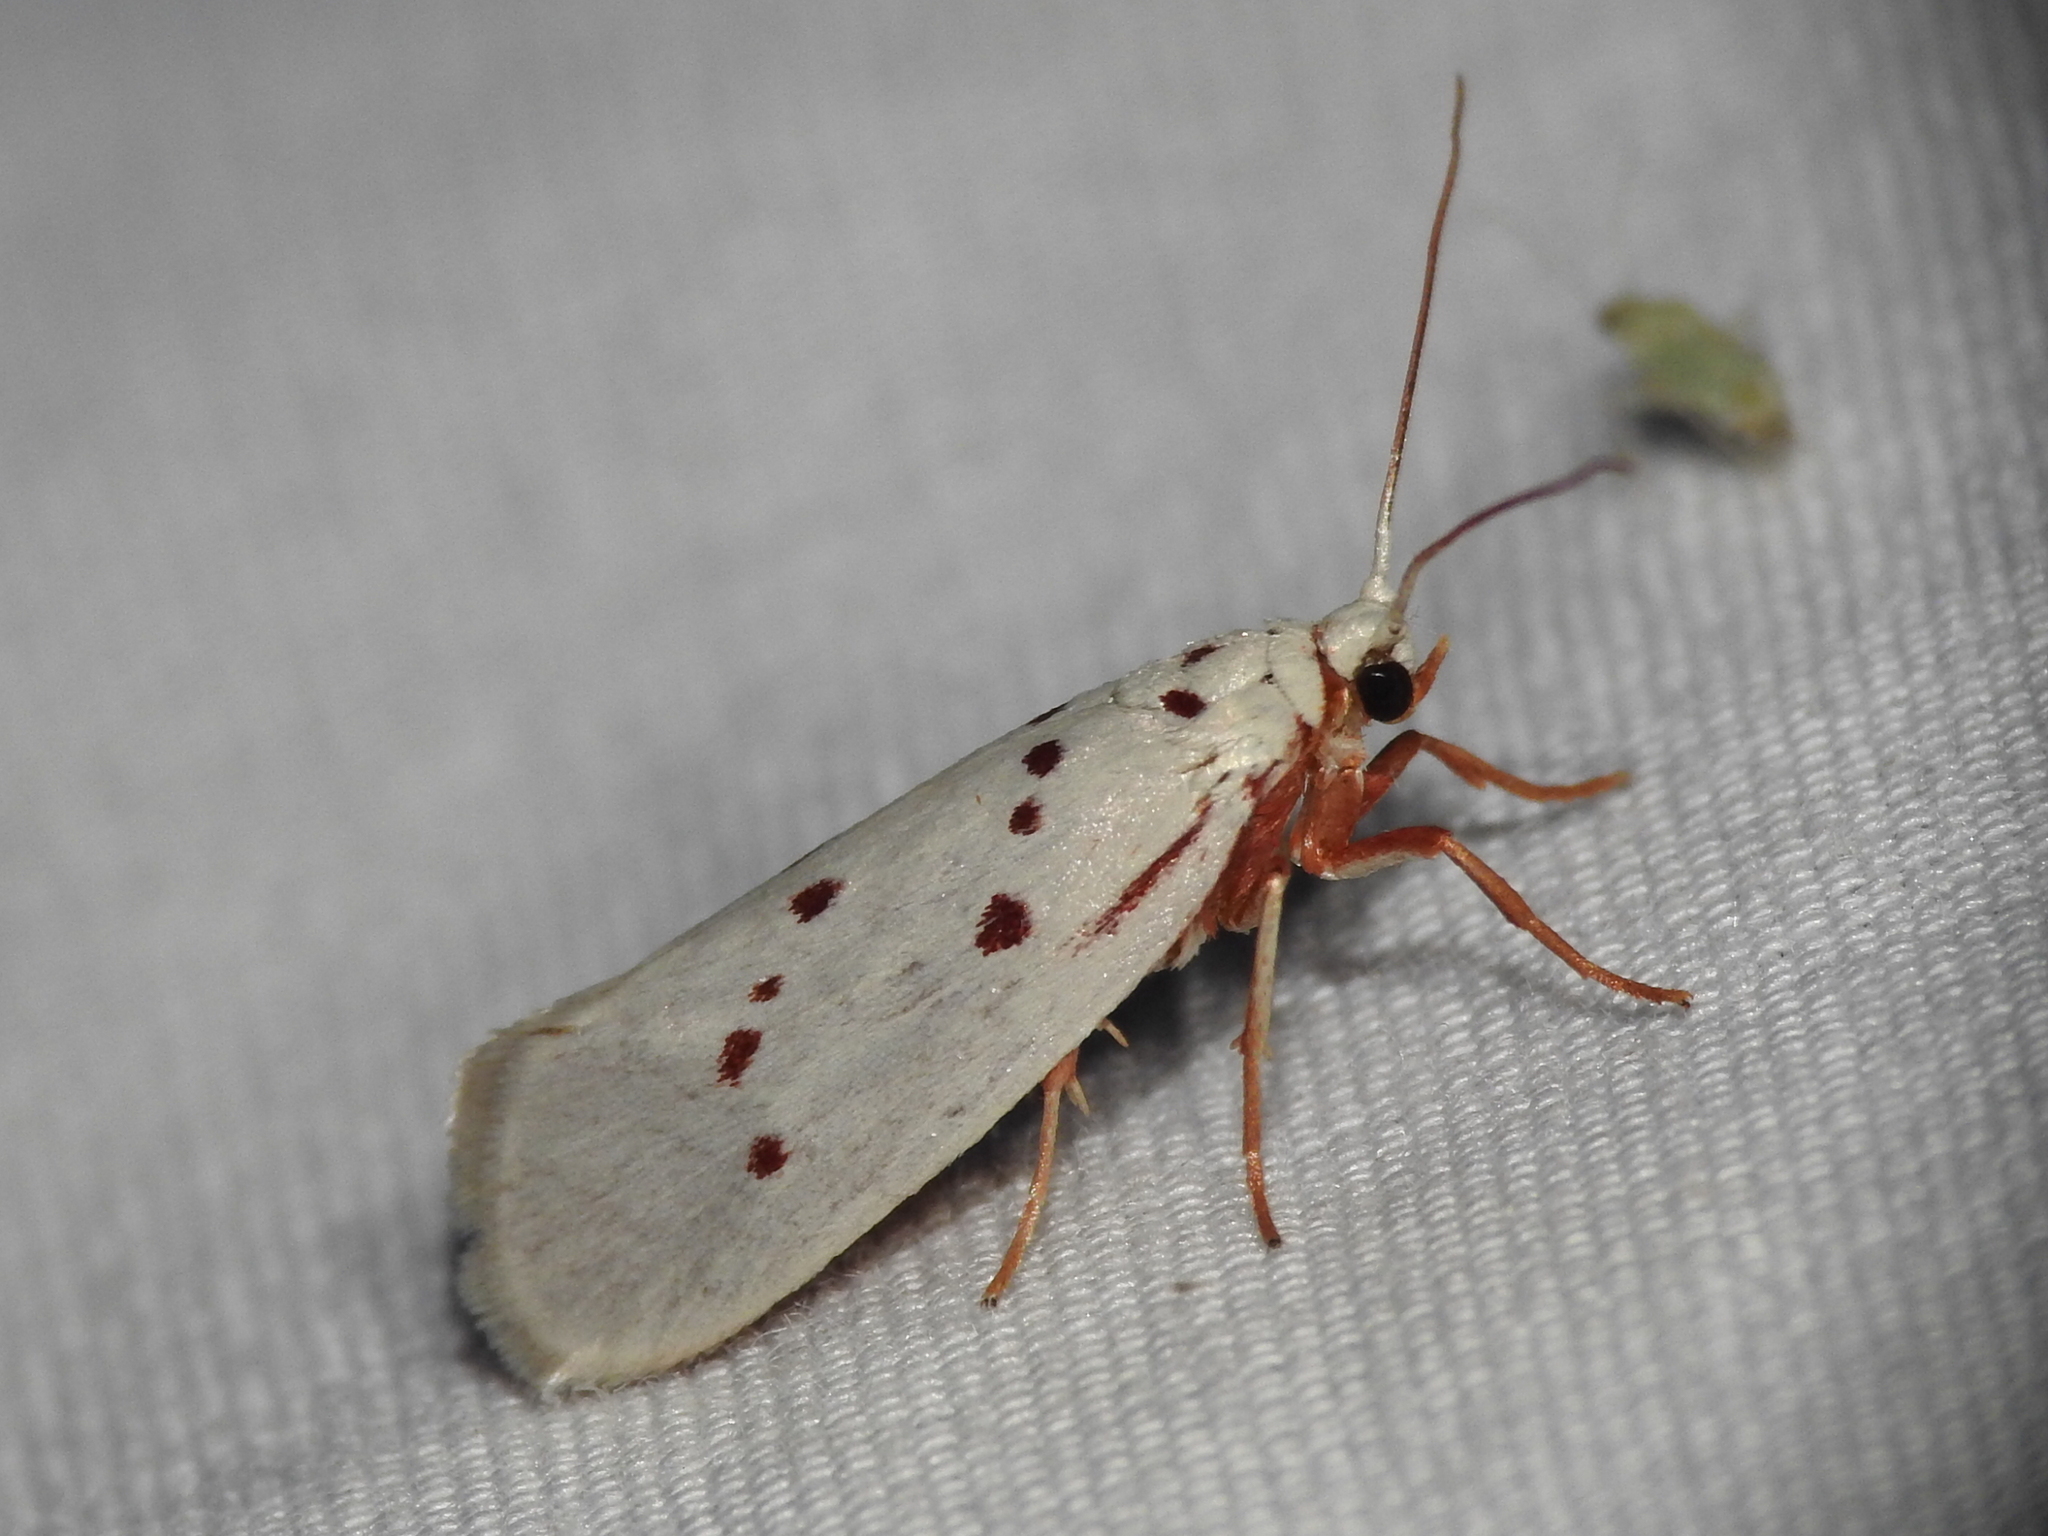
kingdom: Animalia
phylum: Arthropoda
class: Insecta
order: Lepidoptera
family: Lacturidae
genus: Lactura
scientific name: Lactura
